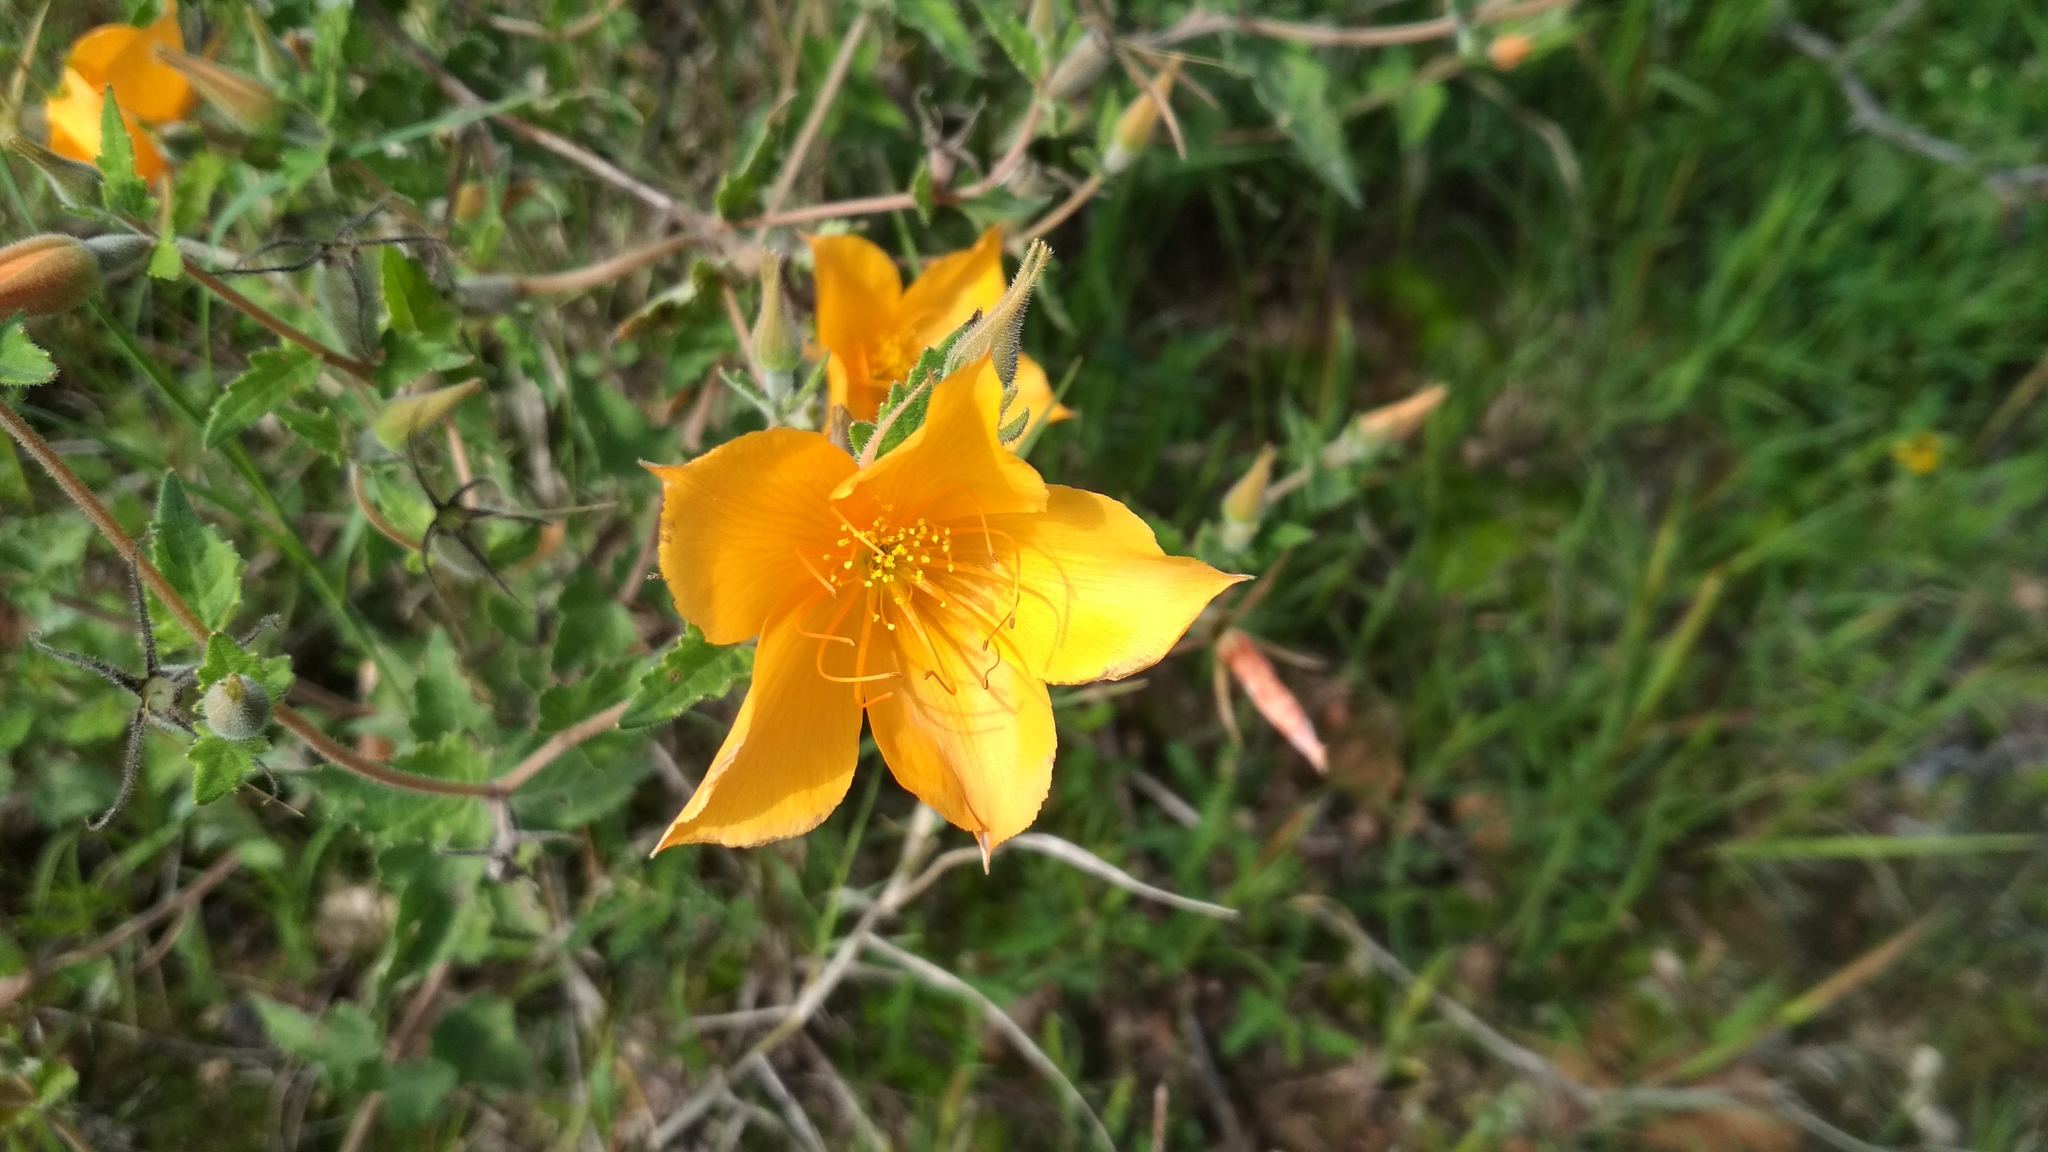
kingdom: Plantae
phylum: Tracheophyta
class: Magnoliopsida
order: Cornales
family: Loasaceae
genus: Mentzelia
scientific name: Mentzelia hispida
